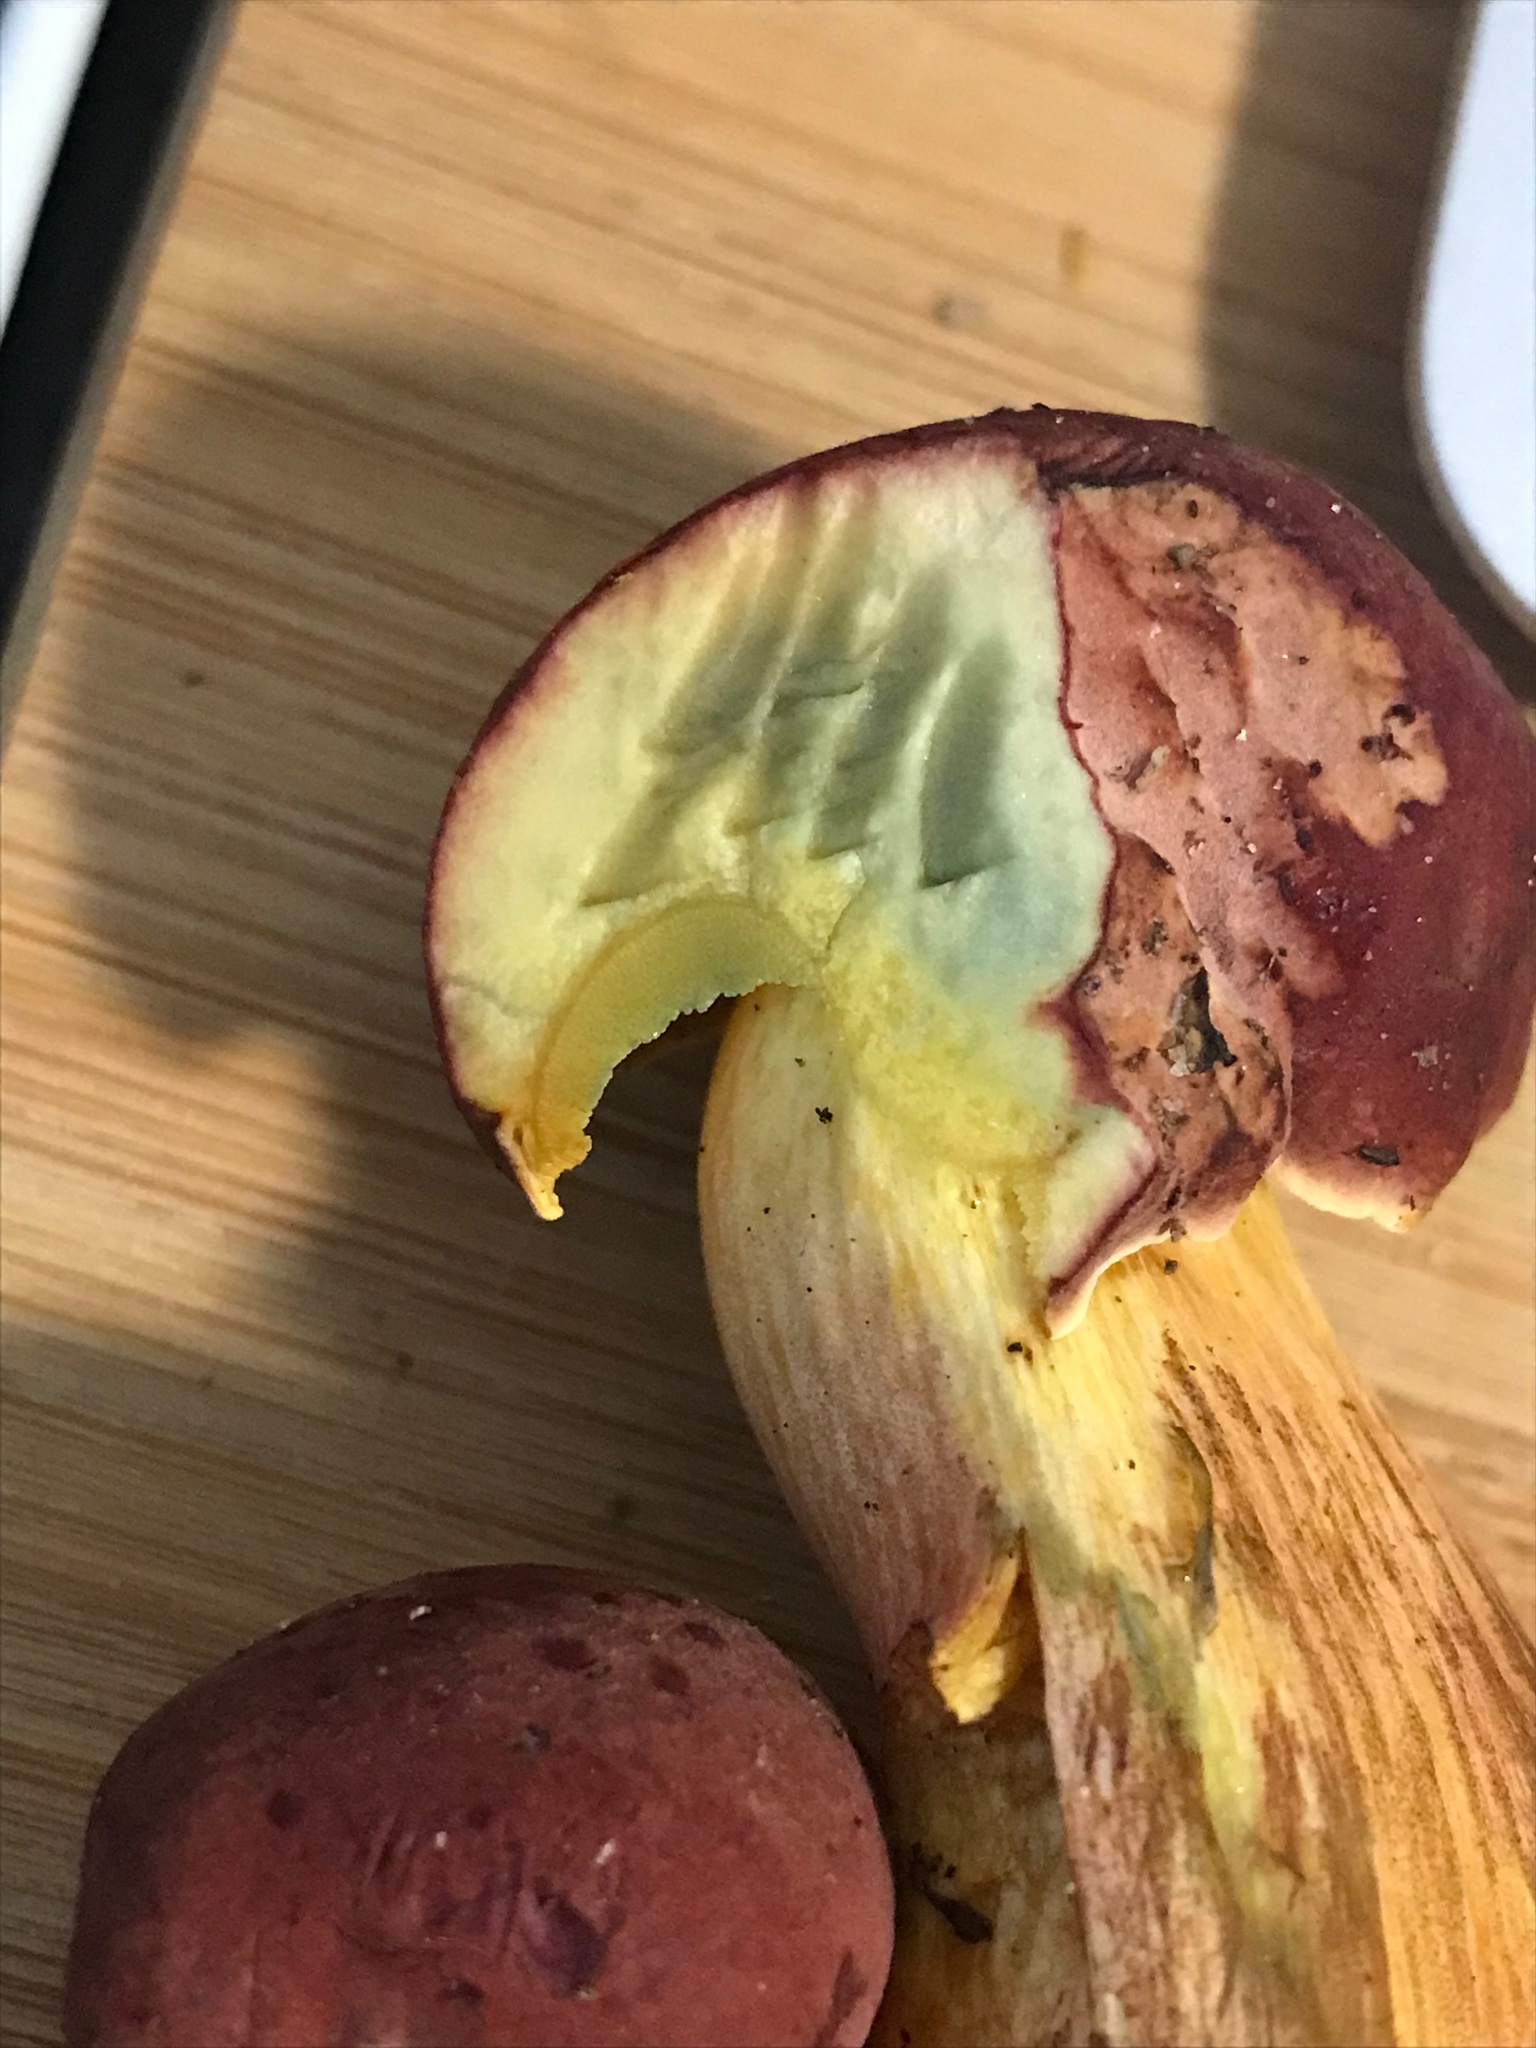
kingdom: Fungi
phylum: Basidiomycota
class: Agaricomycetes
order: Boletales
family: Boletaceae
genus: Pulchroboletus
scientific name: Pulchroboletus sclerotiorum
